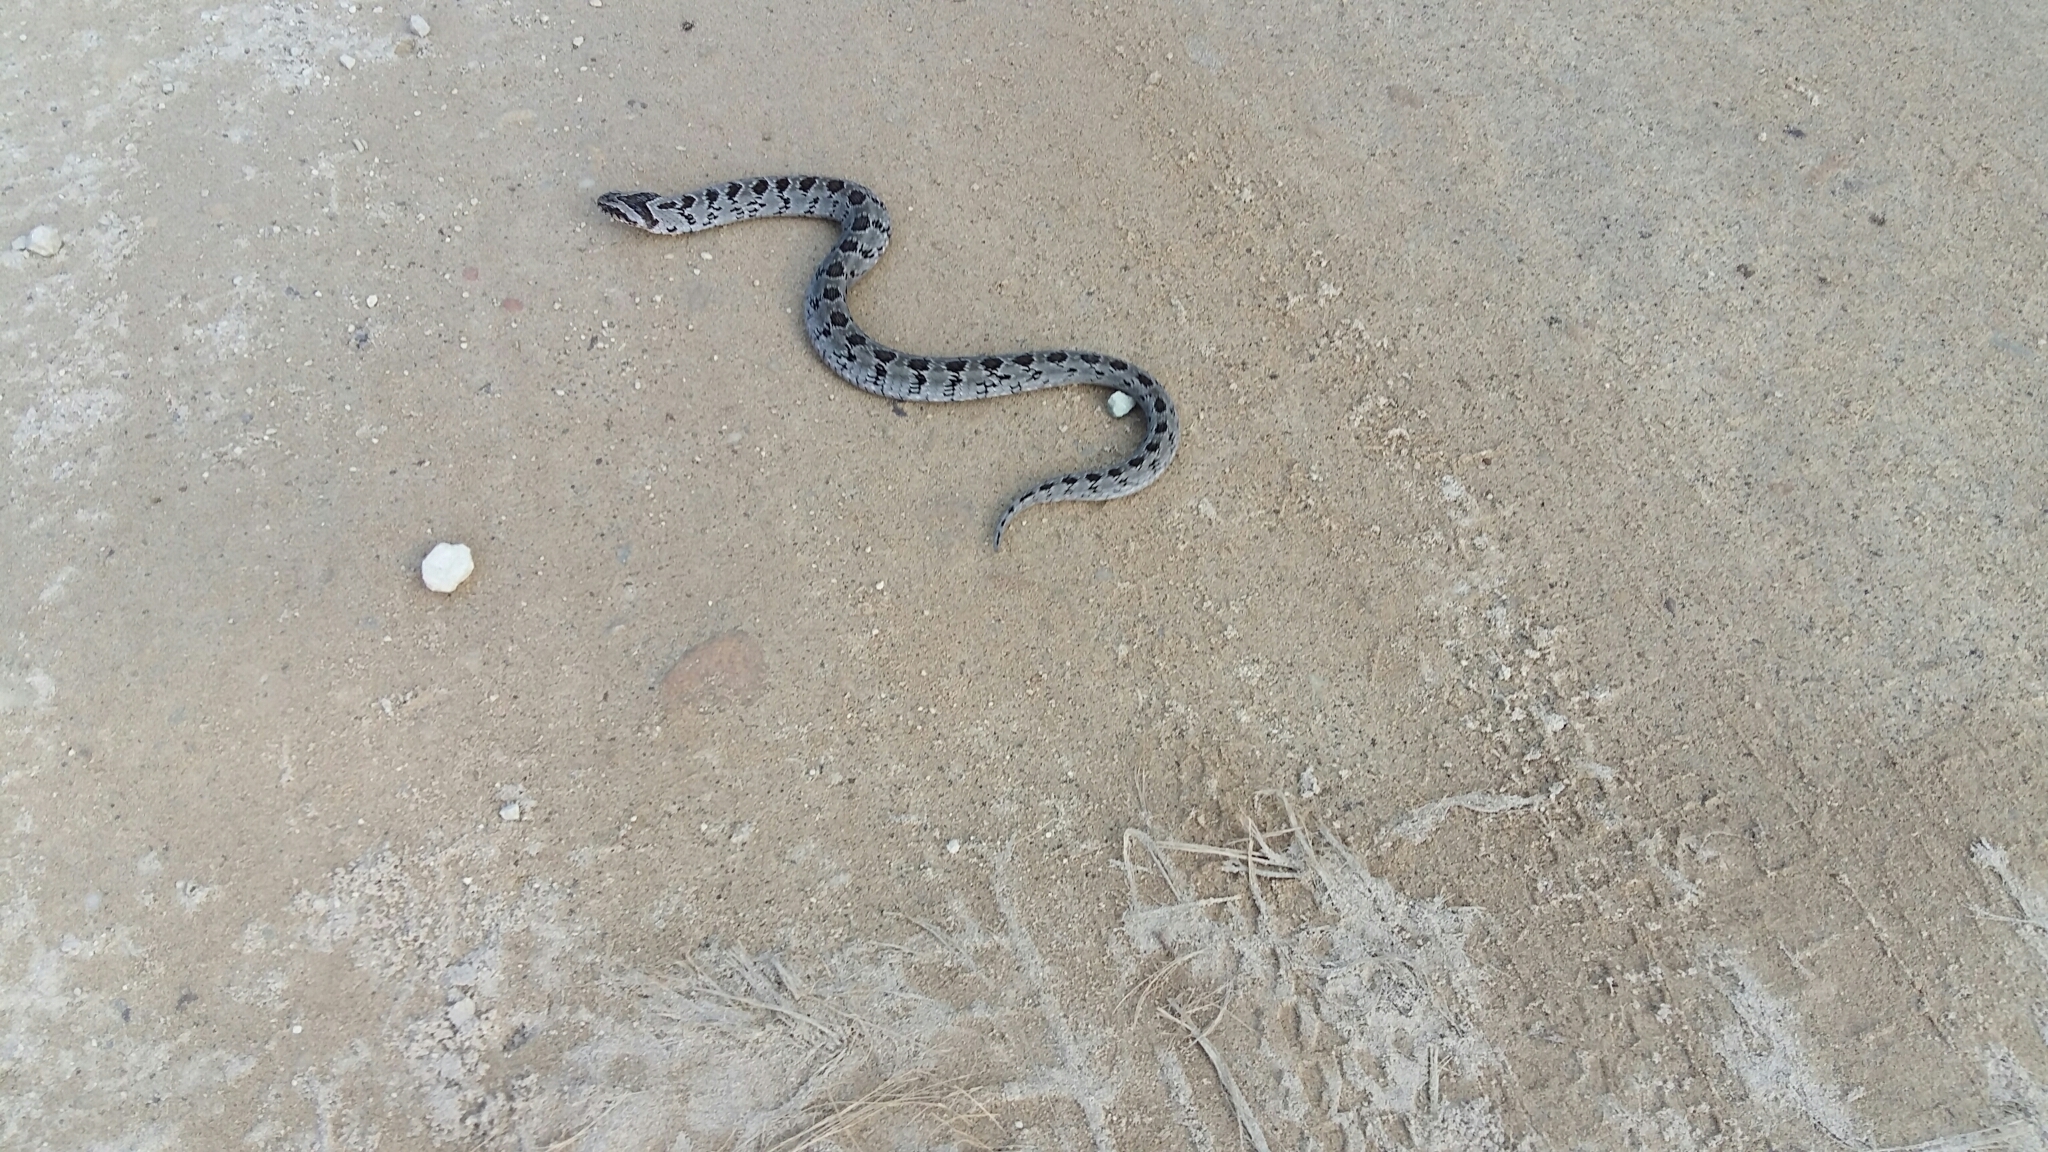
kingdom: Animalia
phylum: Chordata
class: Squamata
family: Viperidae
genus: Causus
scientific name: Causus rhombeatus
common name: Common night adder
